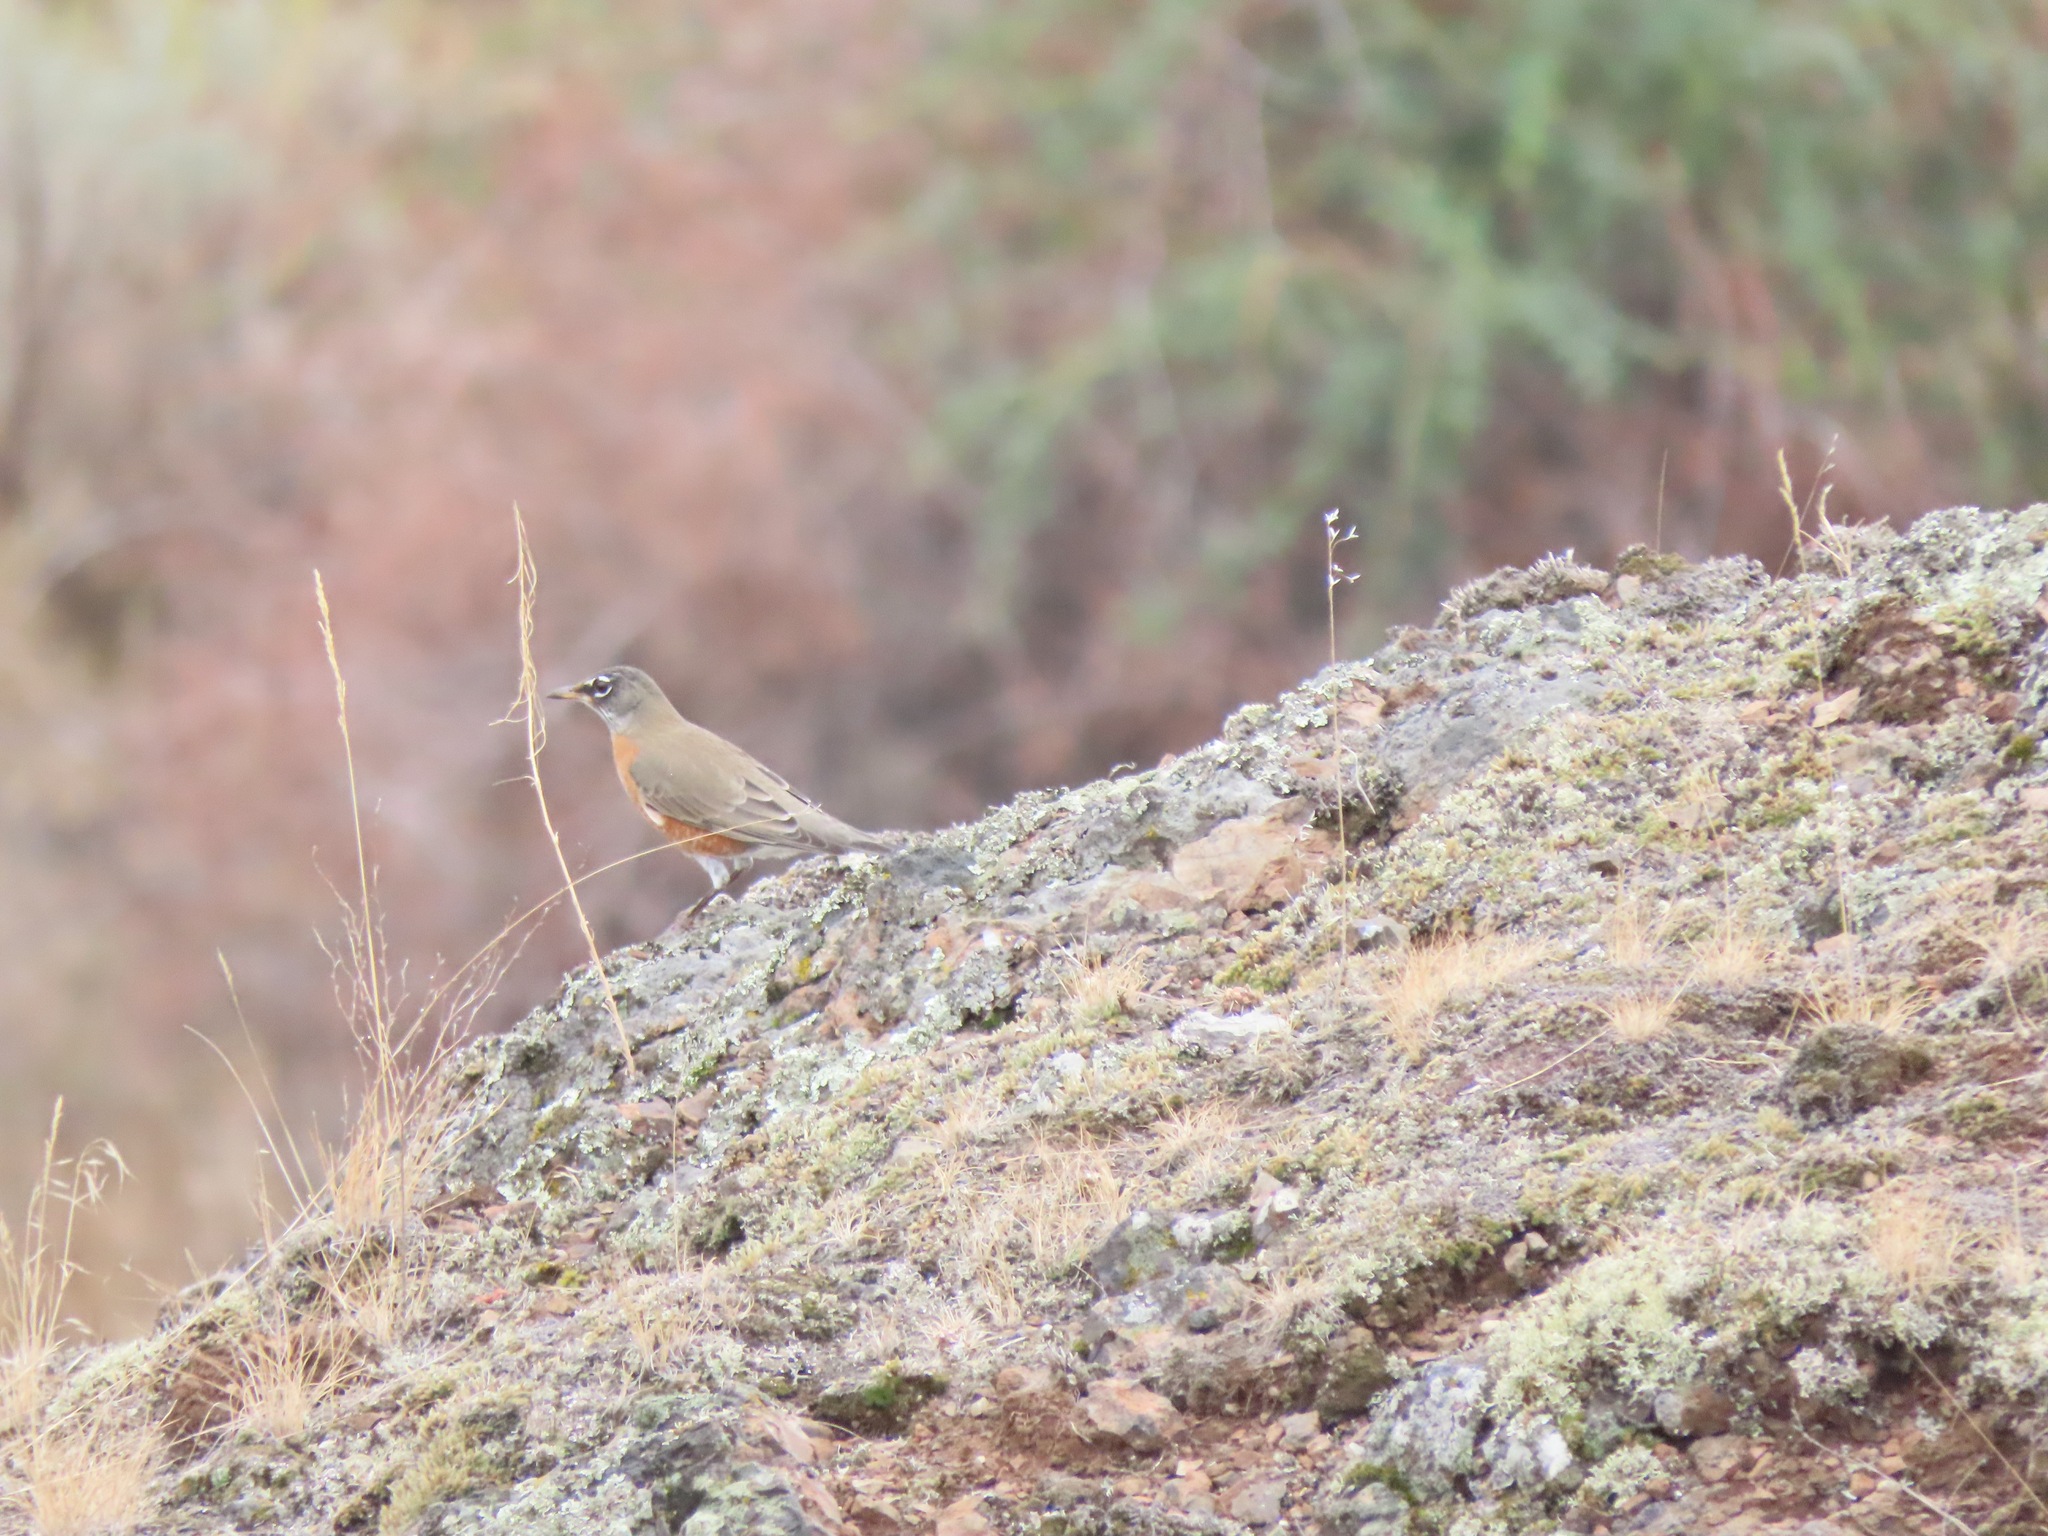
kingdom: Animalia
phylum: Chordata
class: Aves
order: Passeriformes
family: Turdidae
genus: Turdus
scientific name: Turdus migratorius
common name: American robin
